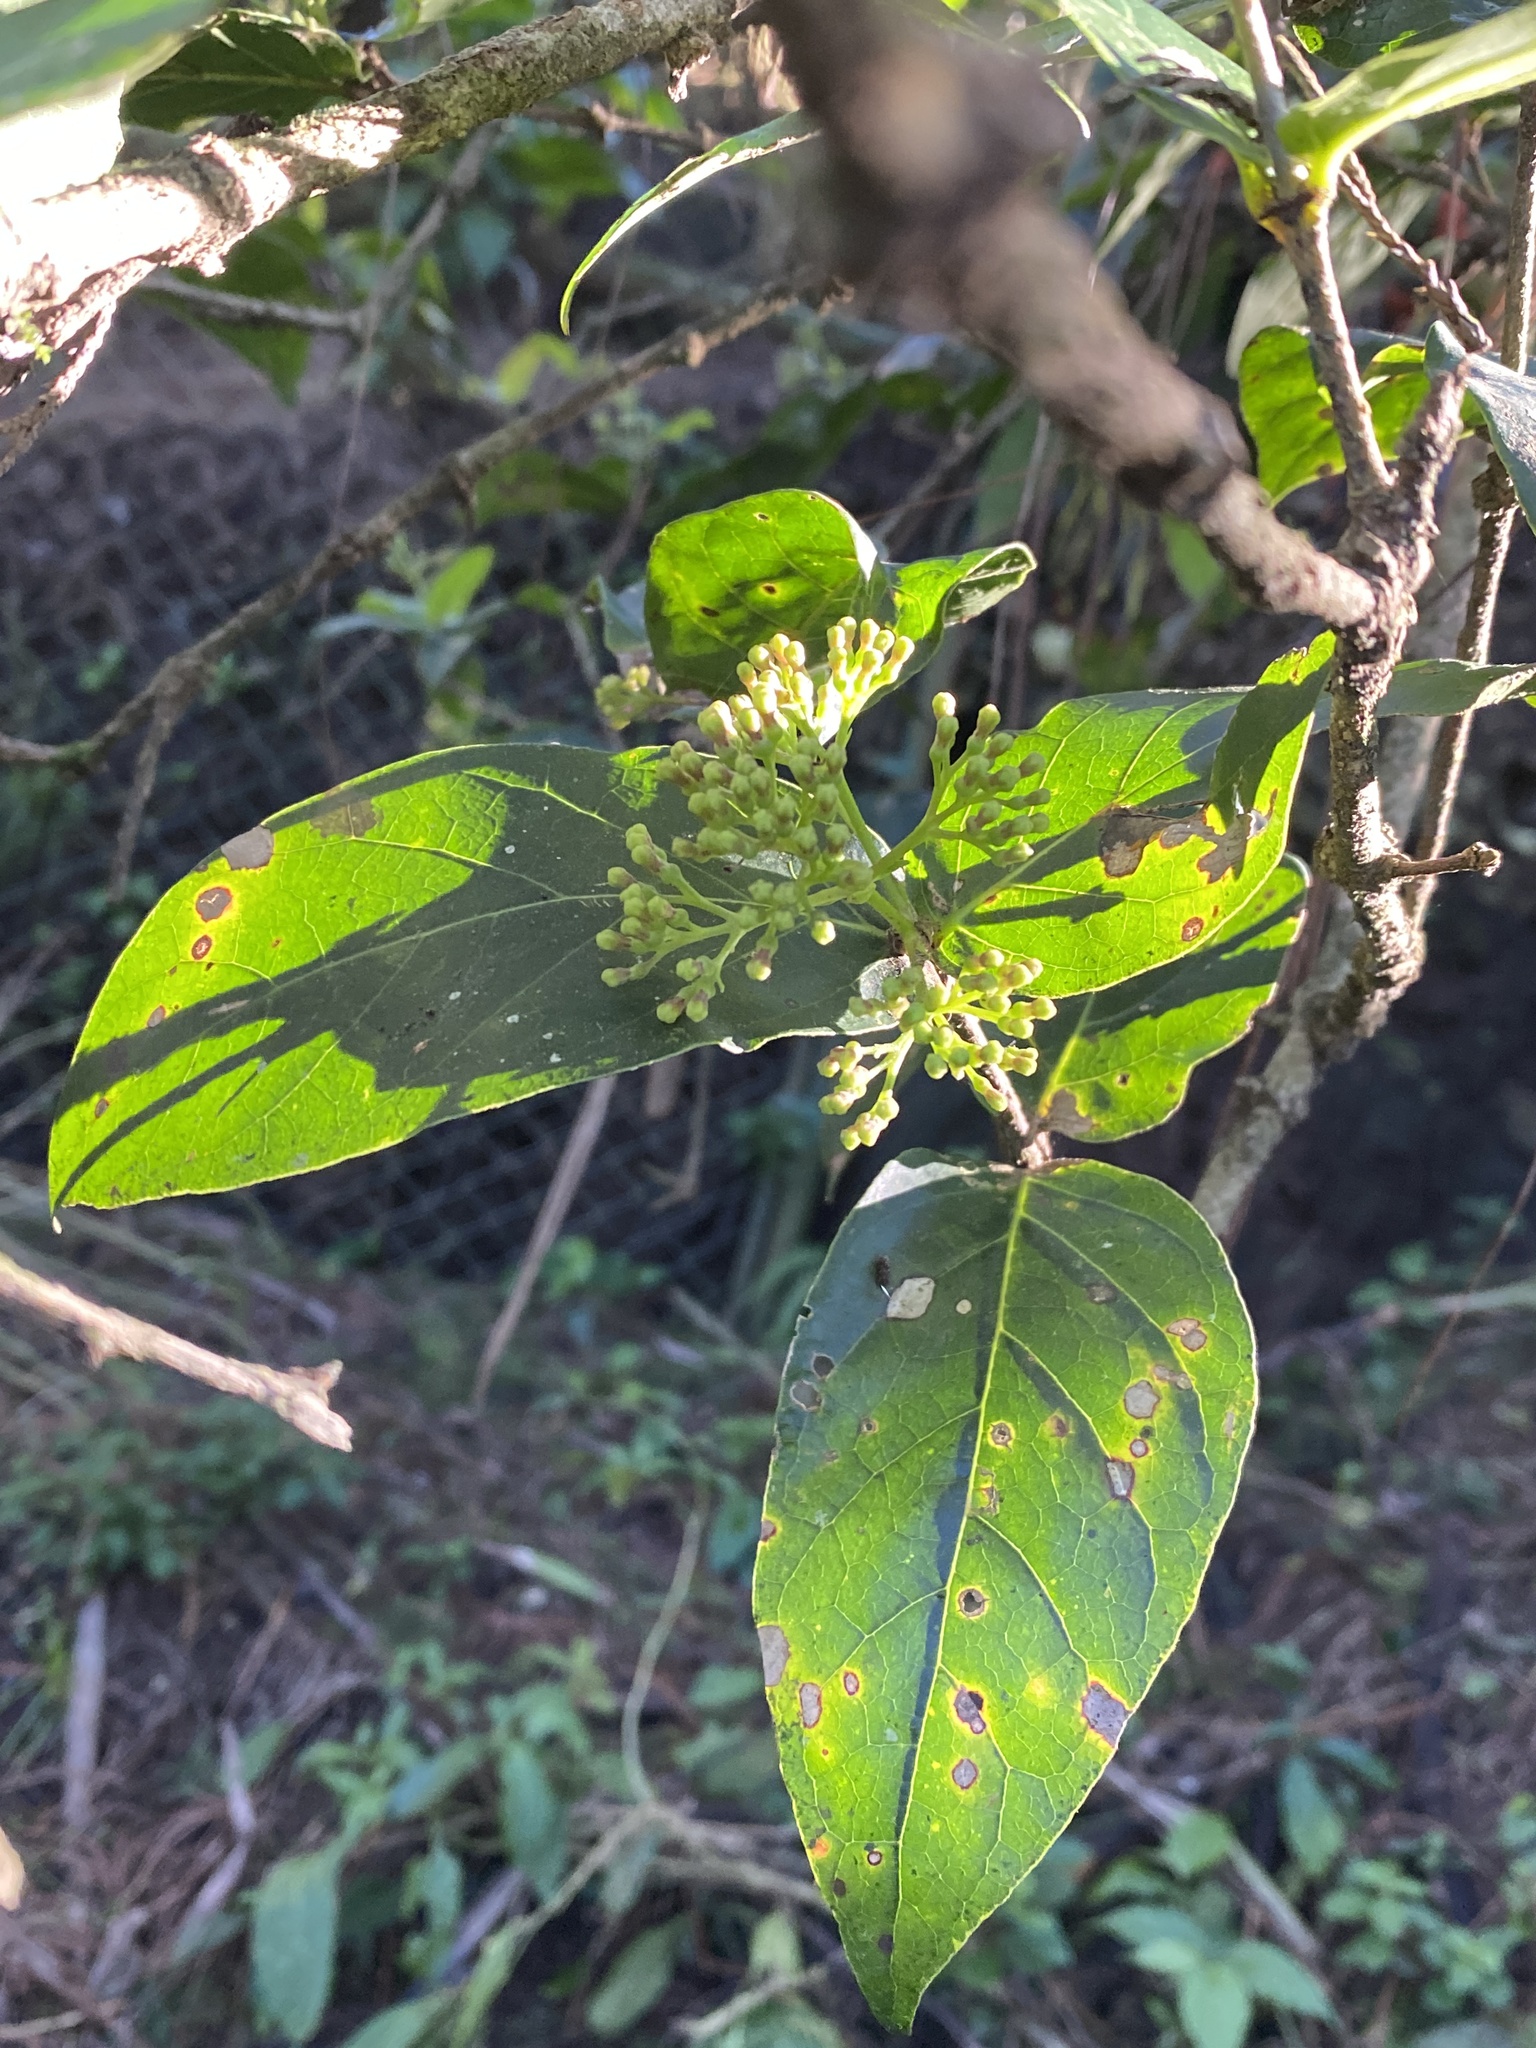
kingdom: Plantae
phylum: Tracheophyta
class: Magnoliopsida
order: Gentianales
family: Rubiaceae
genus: Rogiera
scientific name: Rogiera cordata
